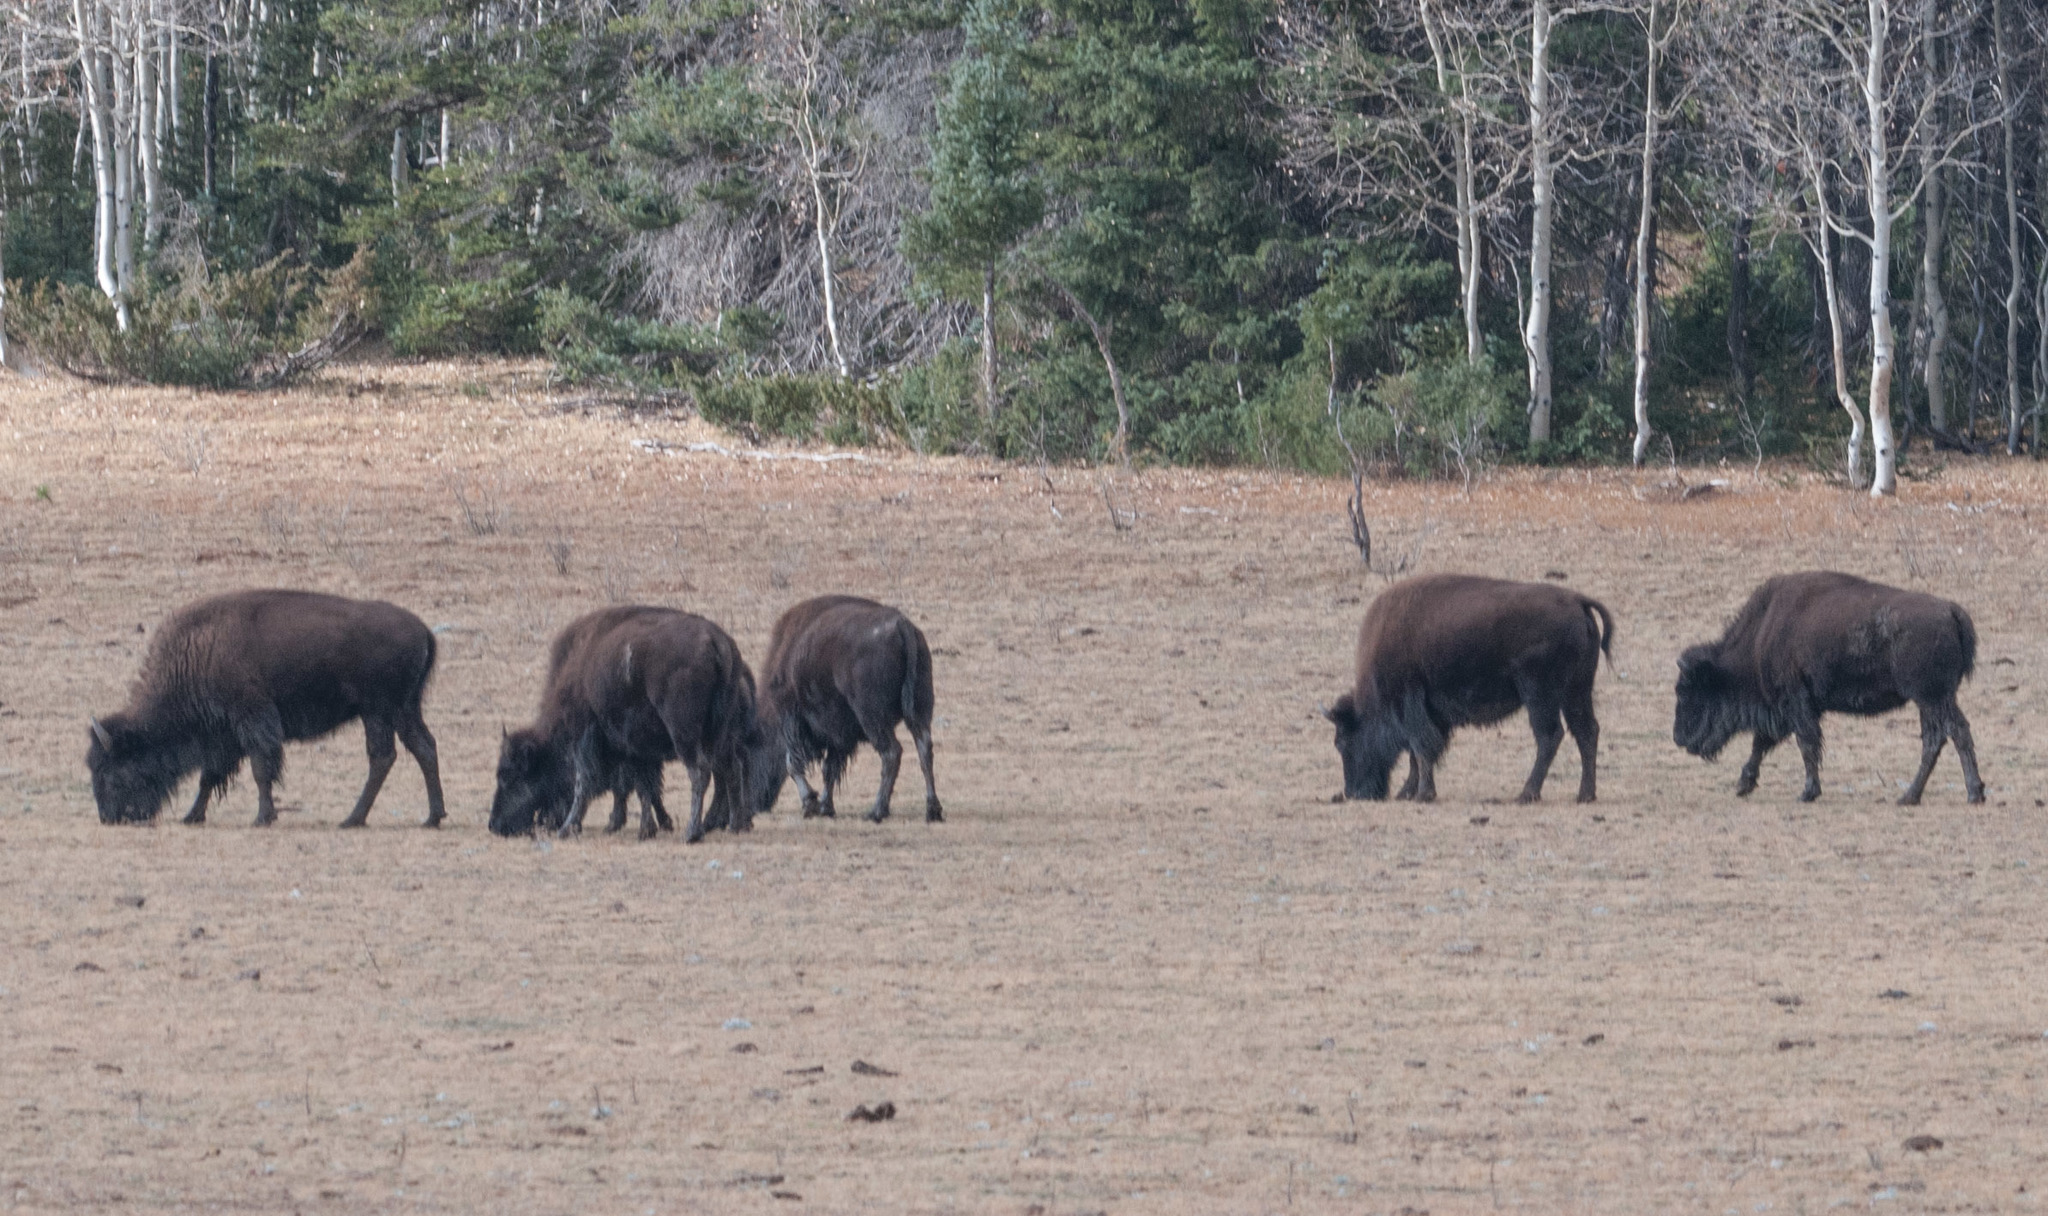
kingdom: Animalia
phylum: Chordata
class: Mammalia
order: Artiodactyla
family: Bovidae
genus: Bison
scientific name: Bison bison
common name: American bison
